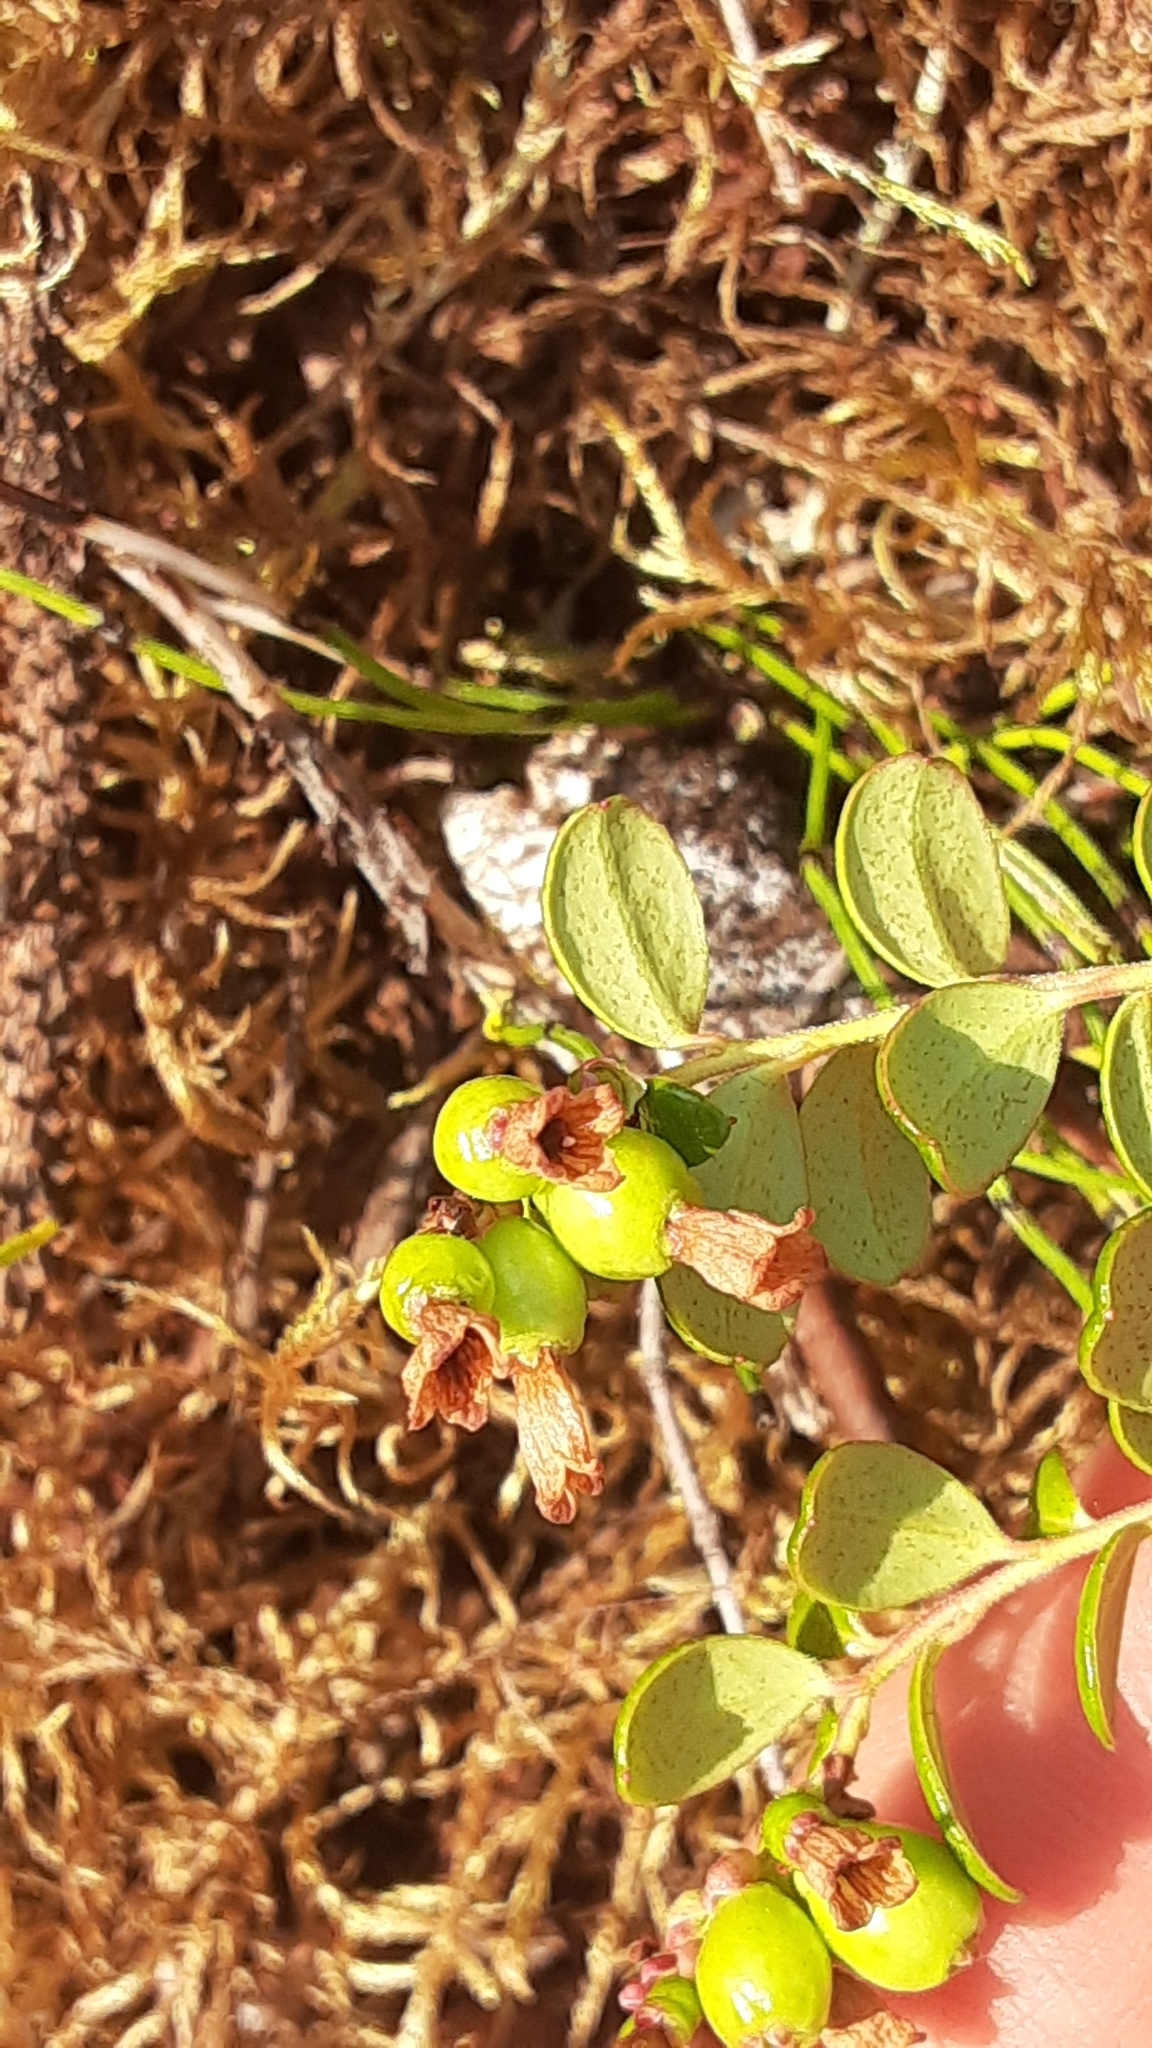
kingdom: Plantae
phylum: Tracheophyta
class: Magnoliopsida
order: Ericales
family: Ericaceae
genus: Vaccinium
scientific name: Vaccinium vitis-idaea
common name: Cowberry
